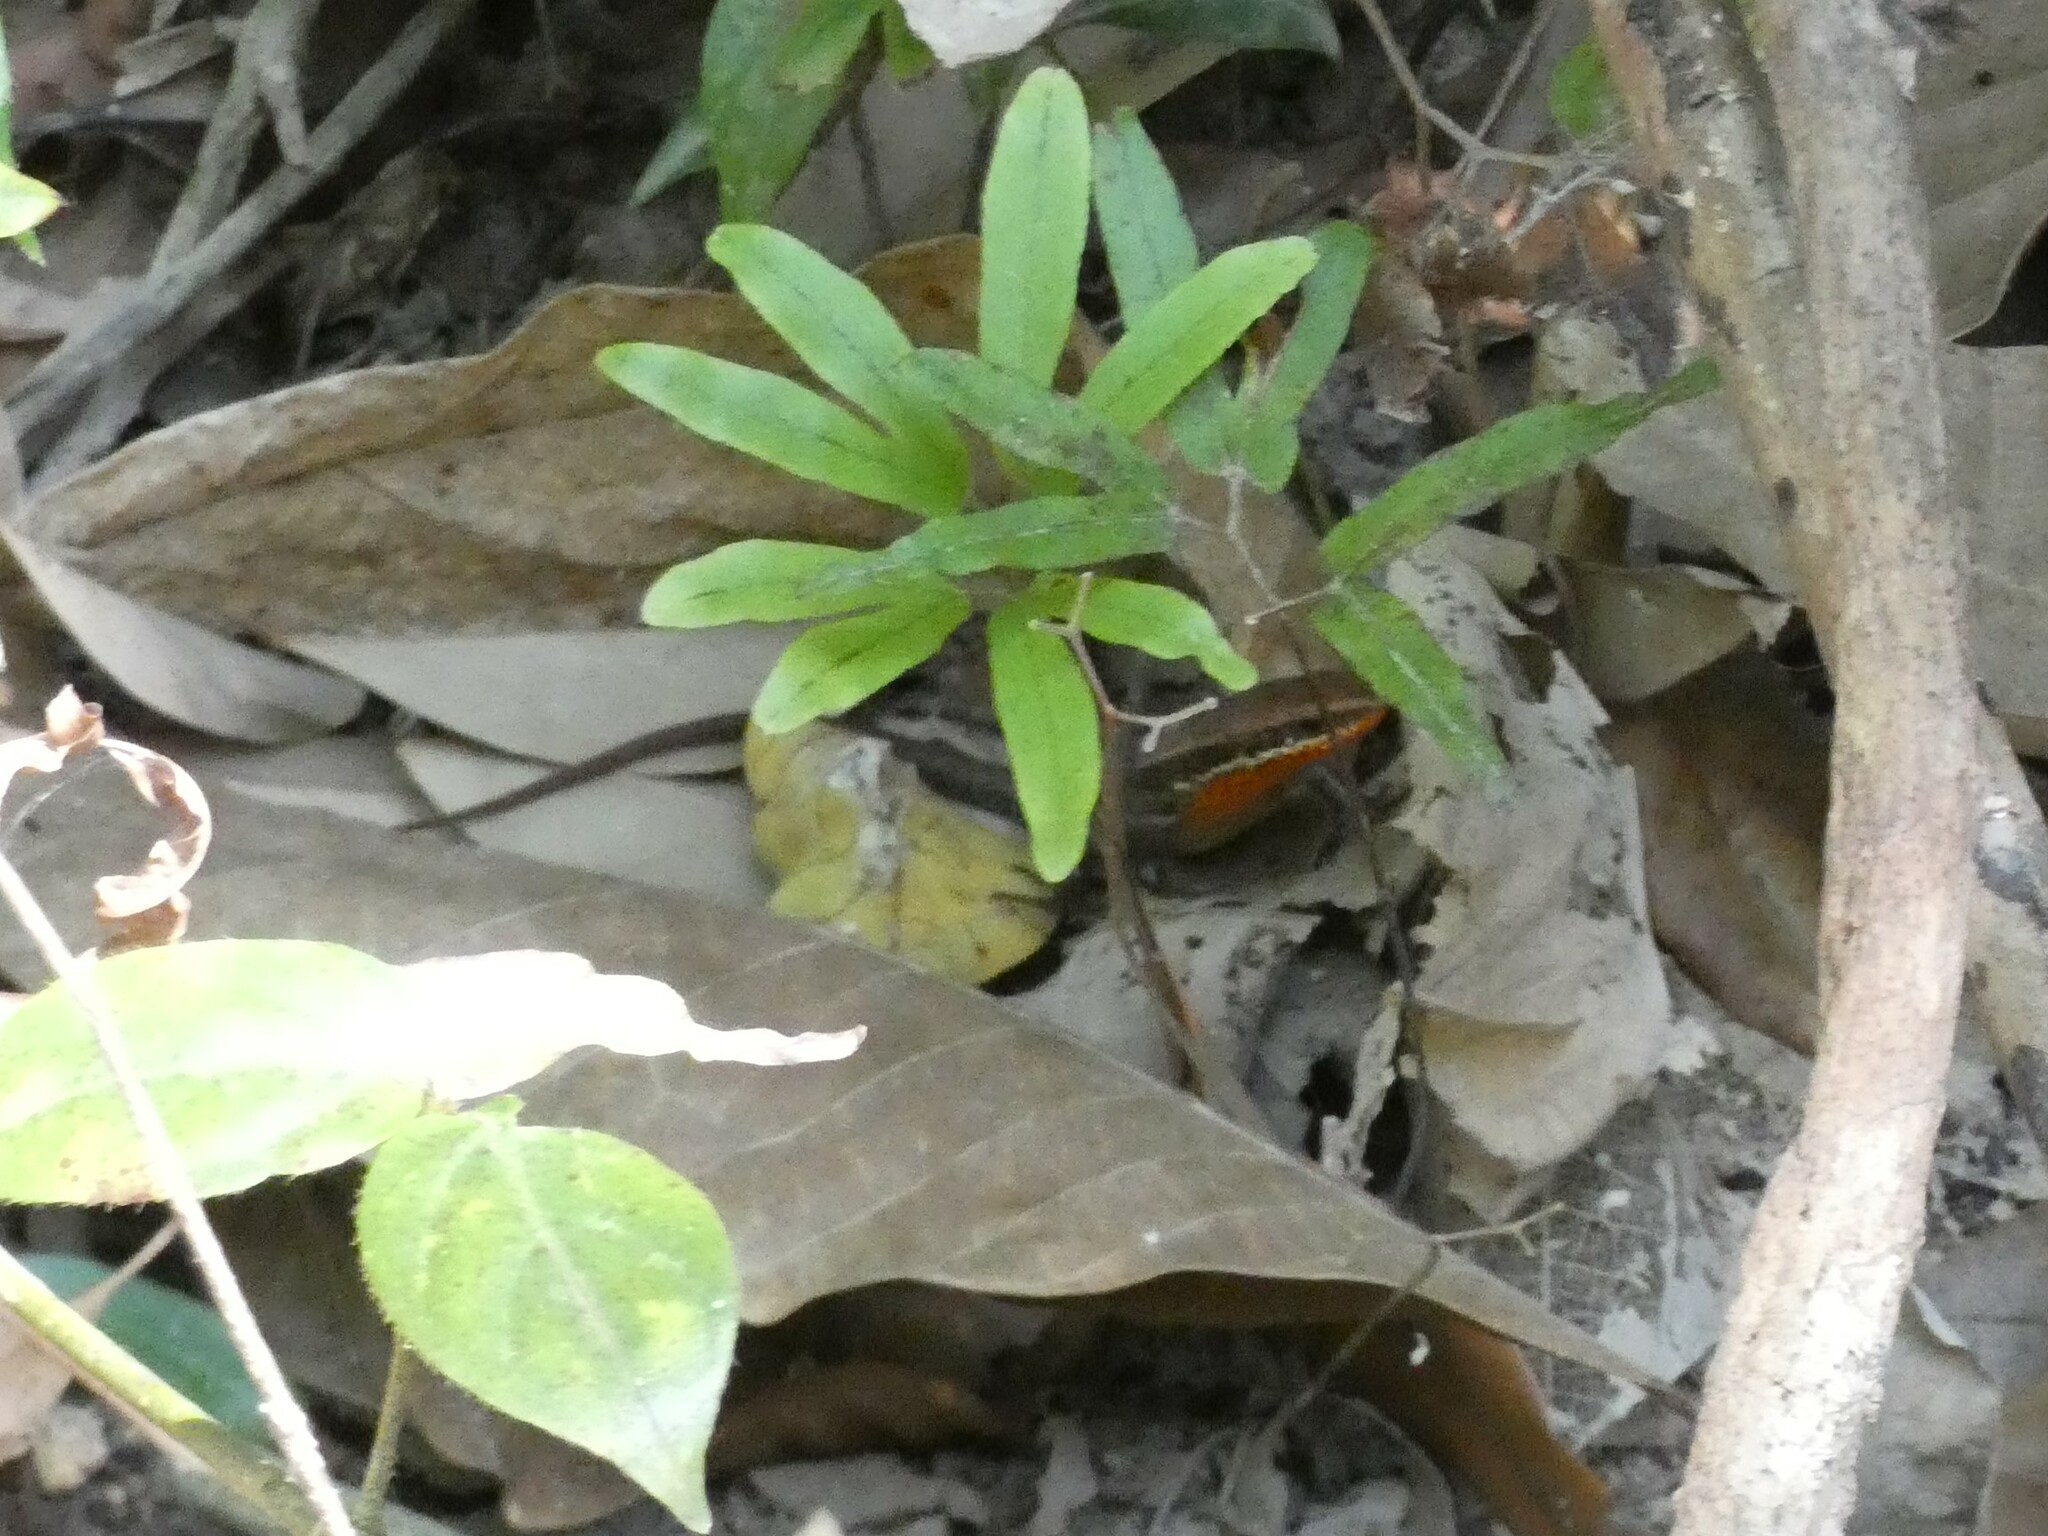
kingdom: Animalia
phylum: Chordata
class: Squamata
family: Scincidae
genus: Eutropis
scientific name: Eutropis macularia
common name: Bronze mabuya
